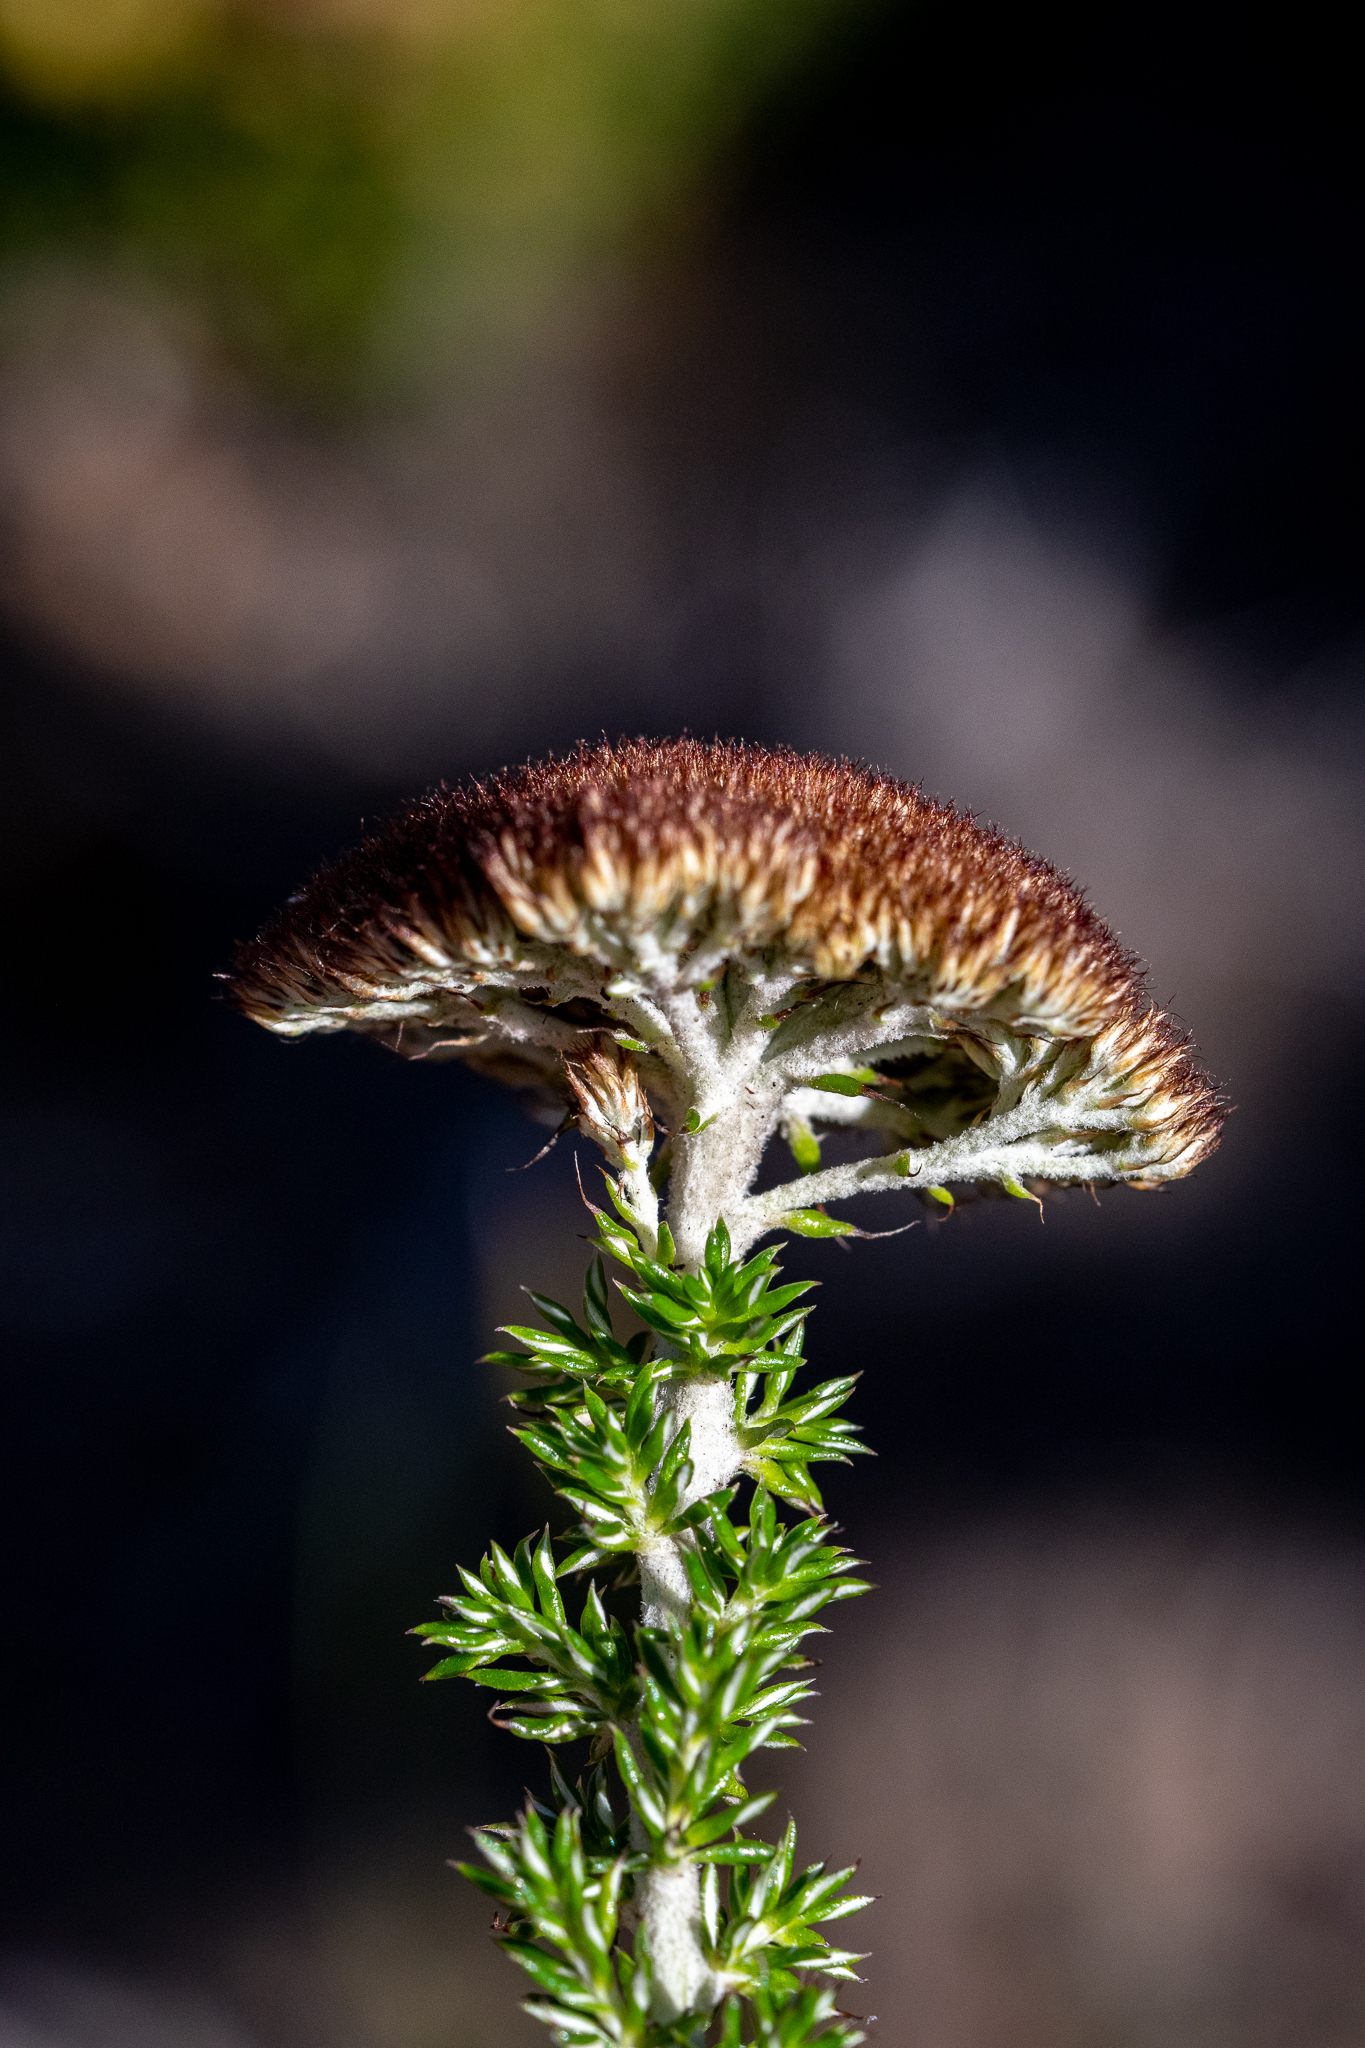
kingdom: Plantae
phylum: Tracheophyta
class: Magnoliopsida
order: Asterales
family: Asteraceae
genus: Metalasia
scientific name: Metalasia pungens
